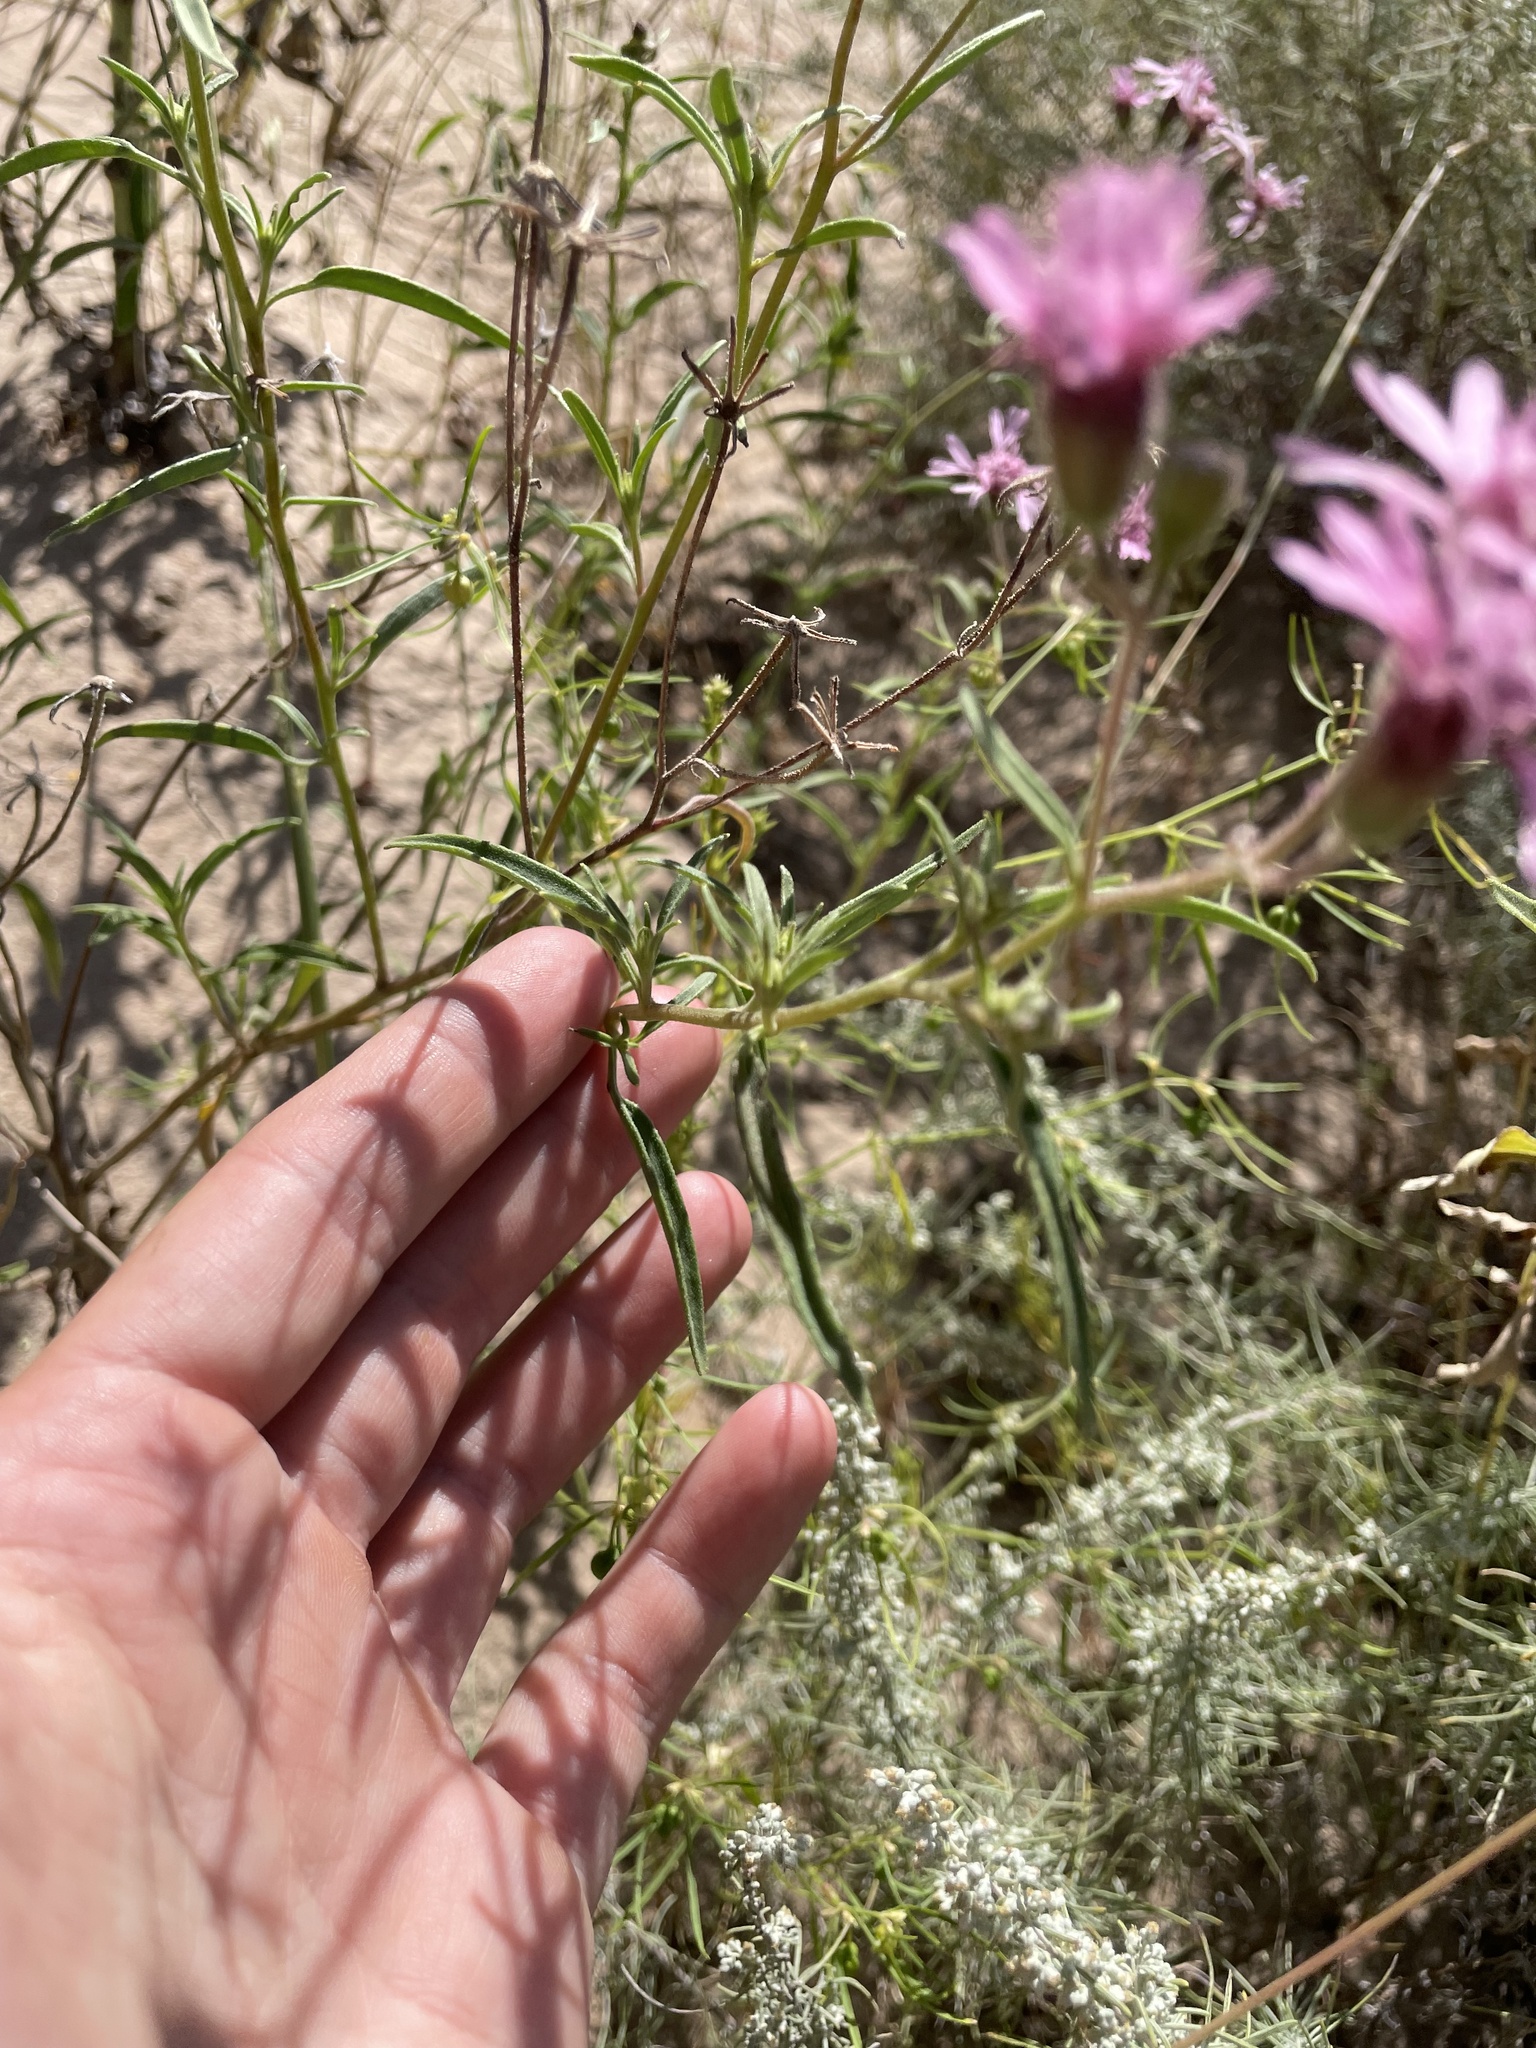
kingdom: Plantae
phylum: Tracheophyta
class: Magnoliopsida
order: Asterales
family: Asteraceae
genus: Palafoxia
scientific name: Palafoxia sphacelata
